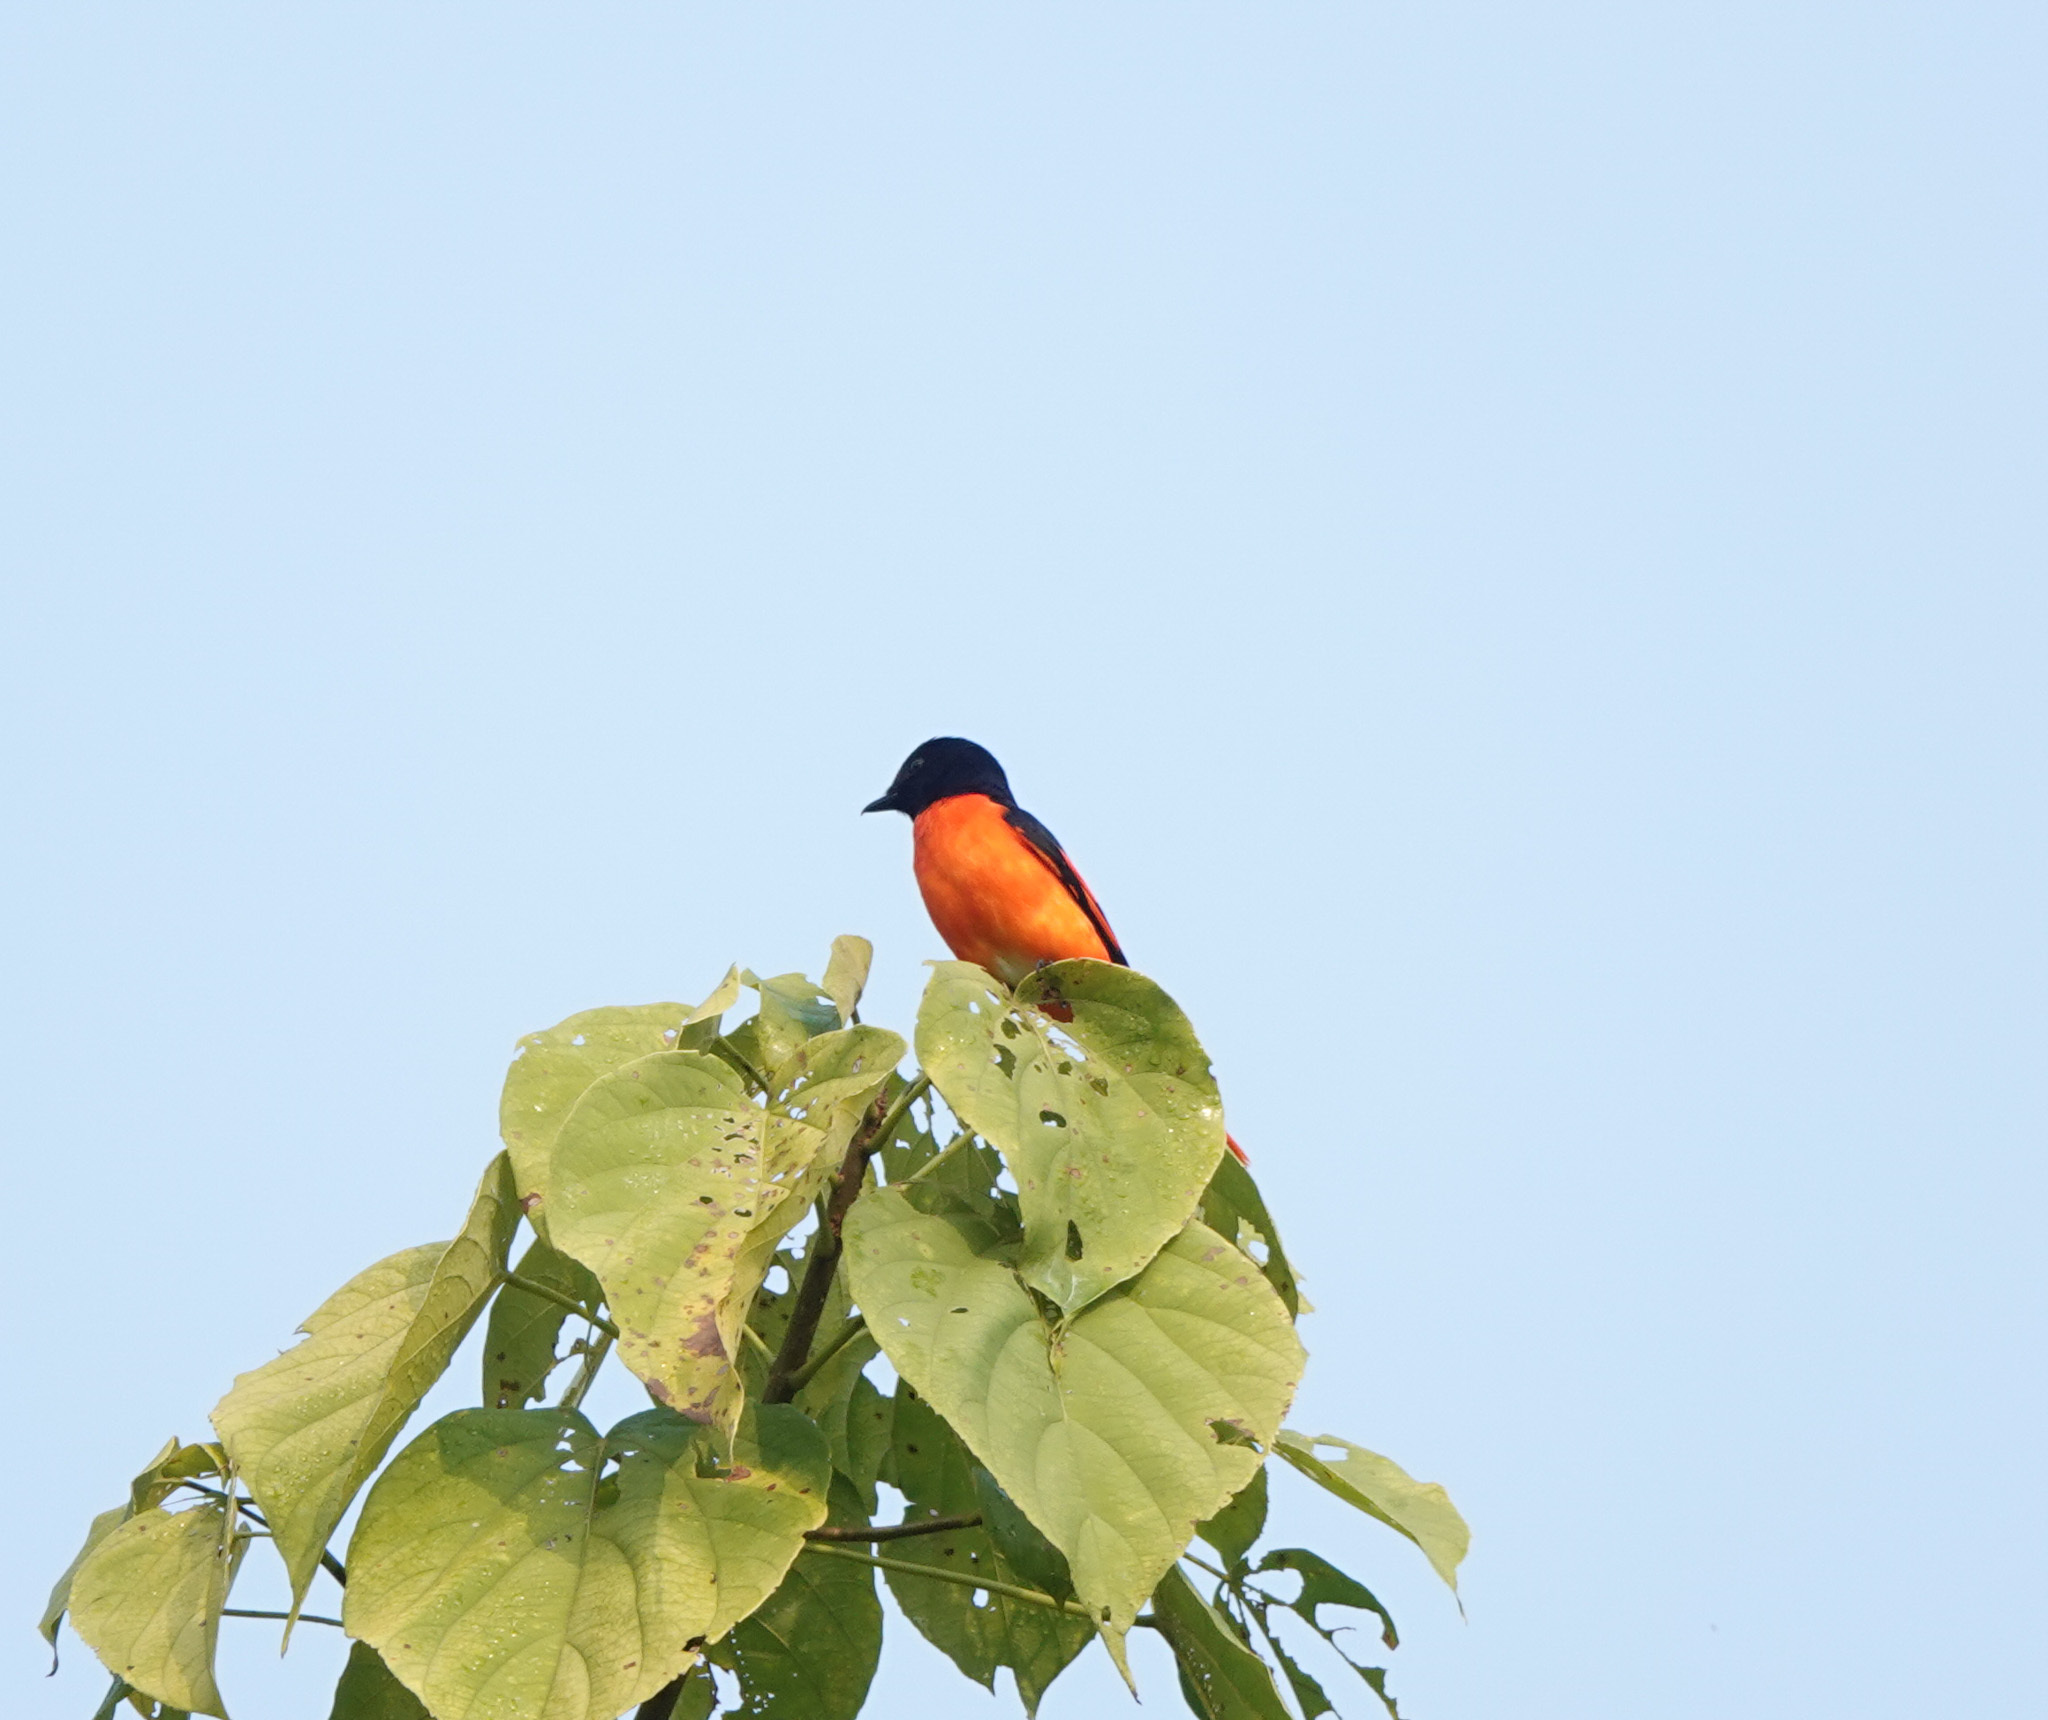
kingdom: Animalia
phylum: Chordata
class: Aves
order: Passeriformes
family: Campephagidae
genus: Pericrocotus
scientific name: Pericrocotus speciosus
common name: Scarlet minivet
